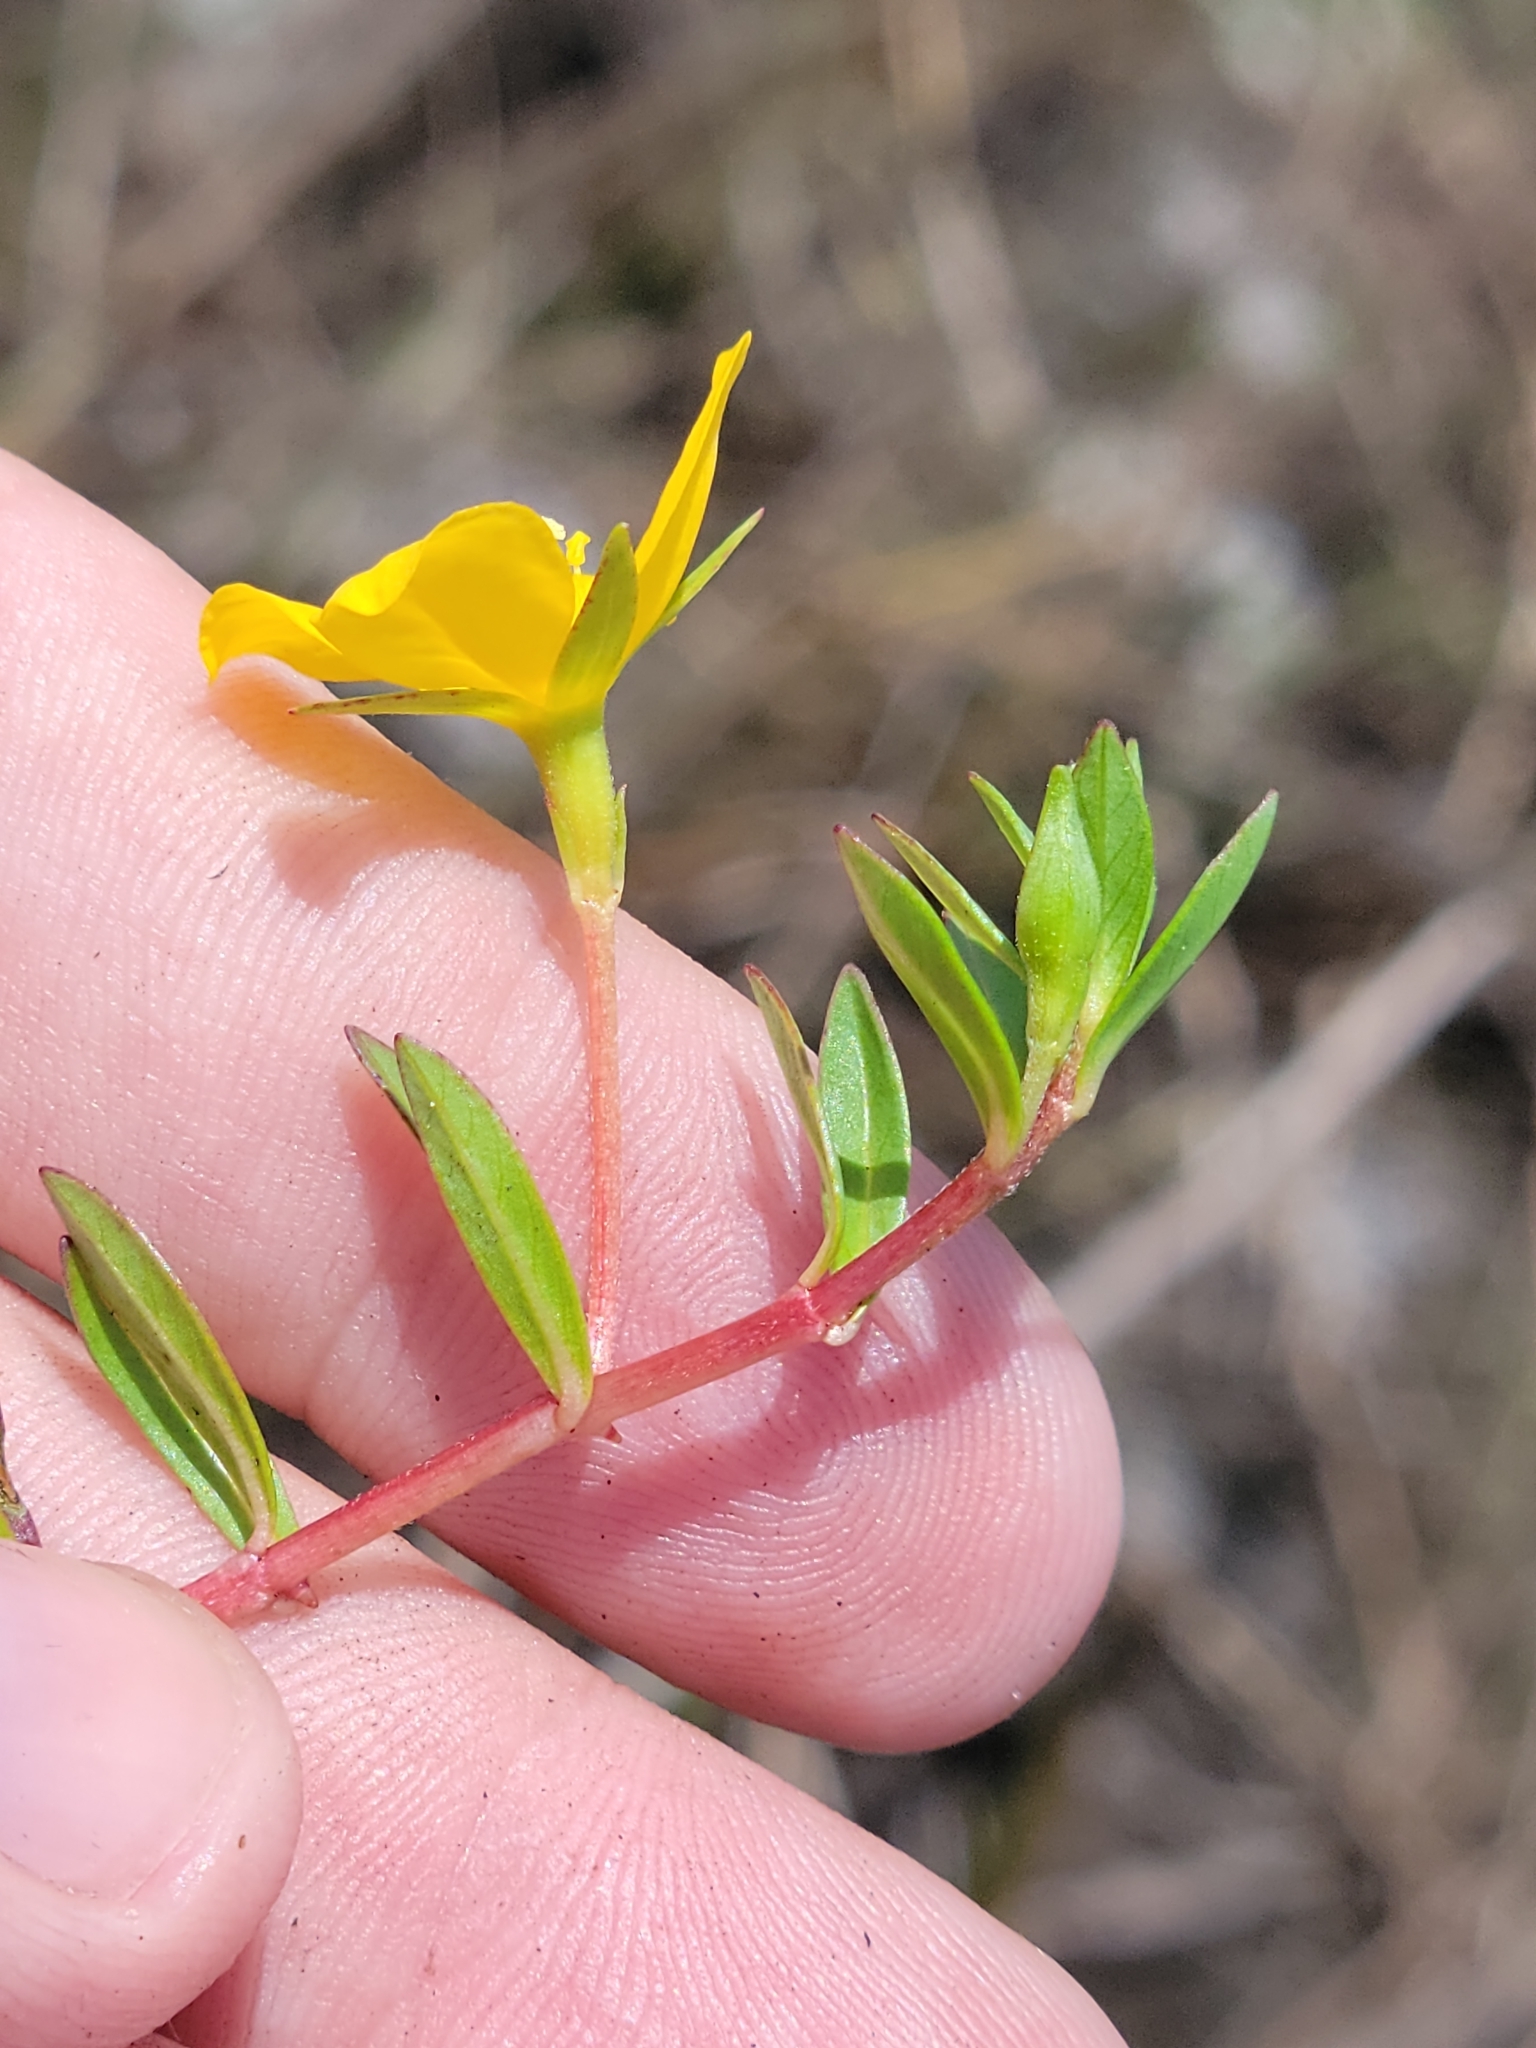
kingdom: Plantae
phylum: Tracheophyta
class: Magnoliopsida
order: Myrtales
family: Onagraceae
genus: Ludwigia
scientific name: Ludwigia arcuata
